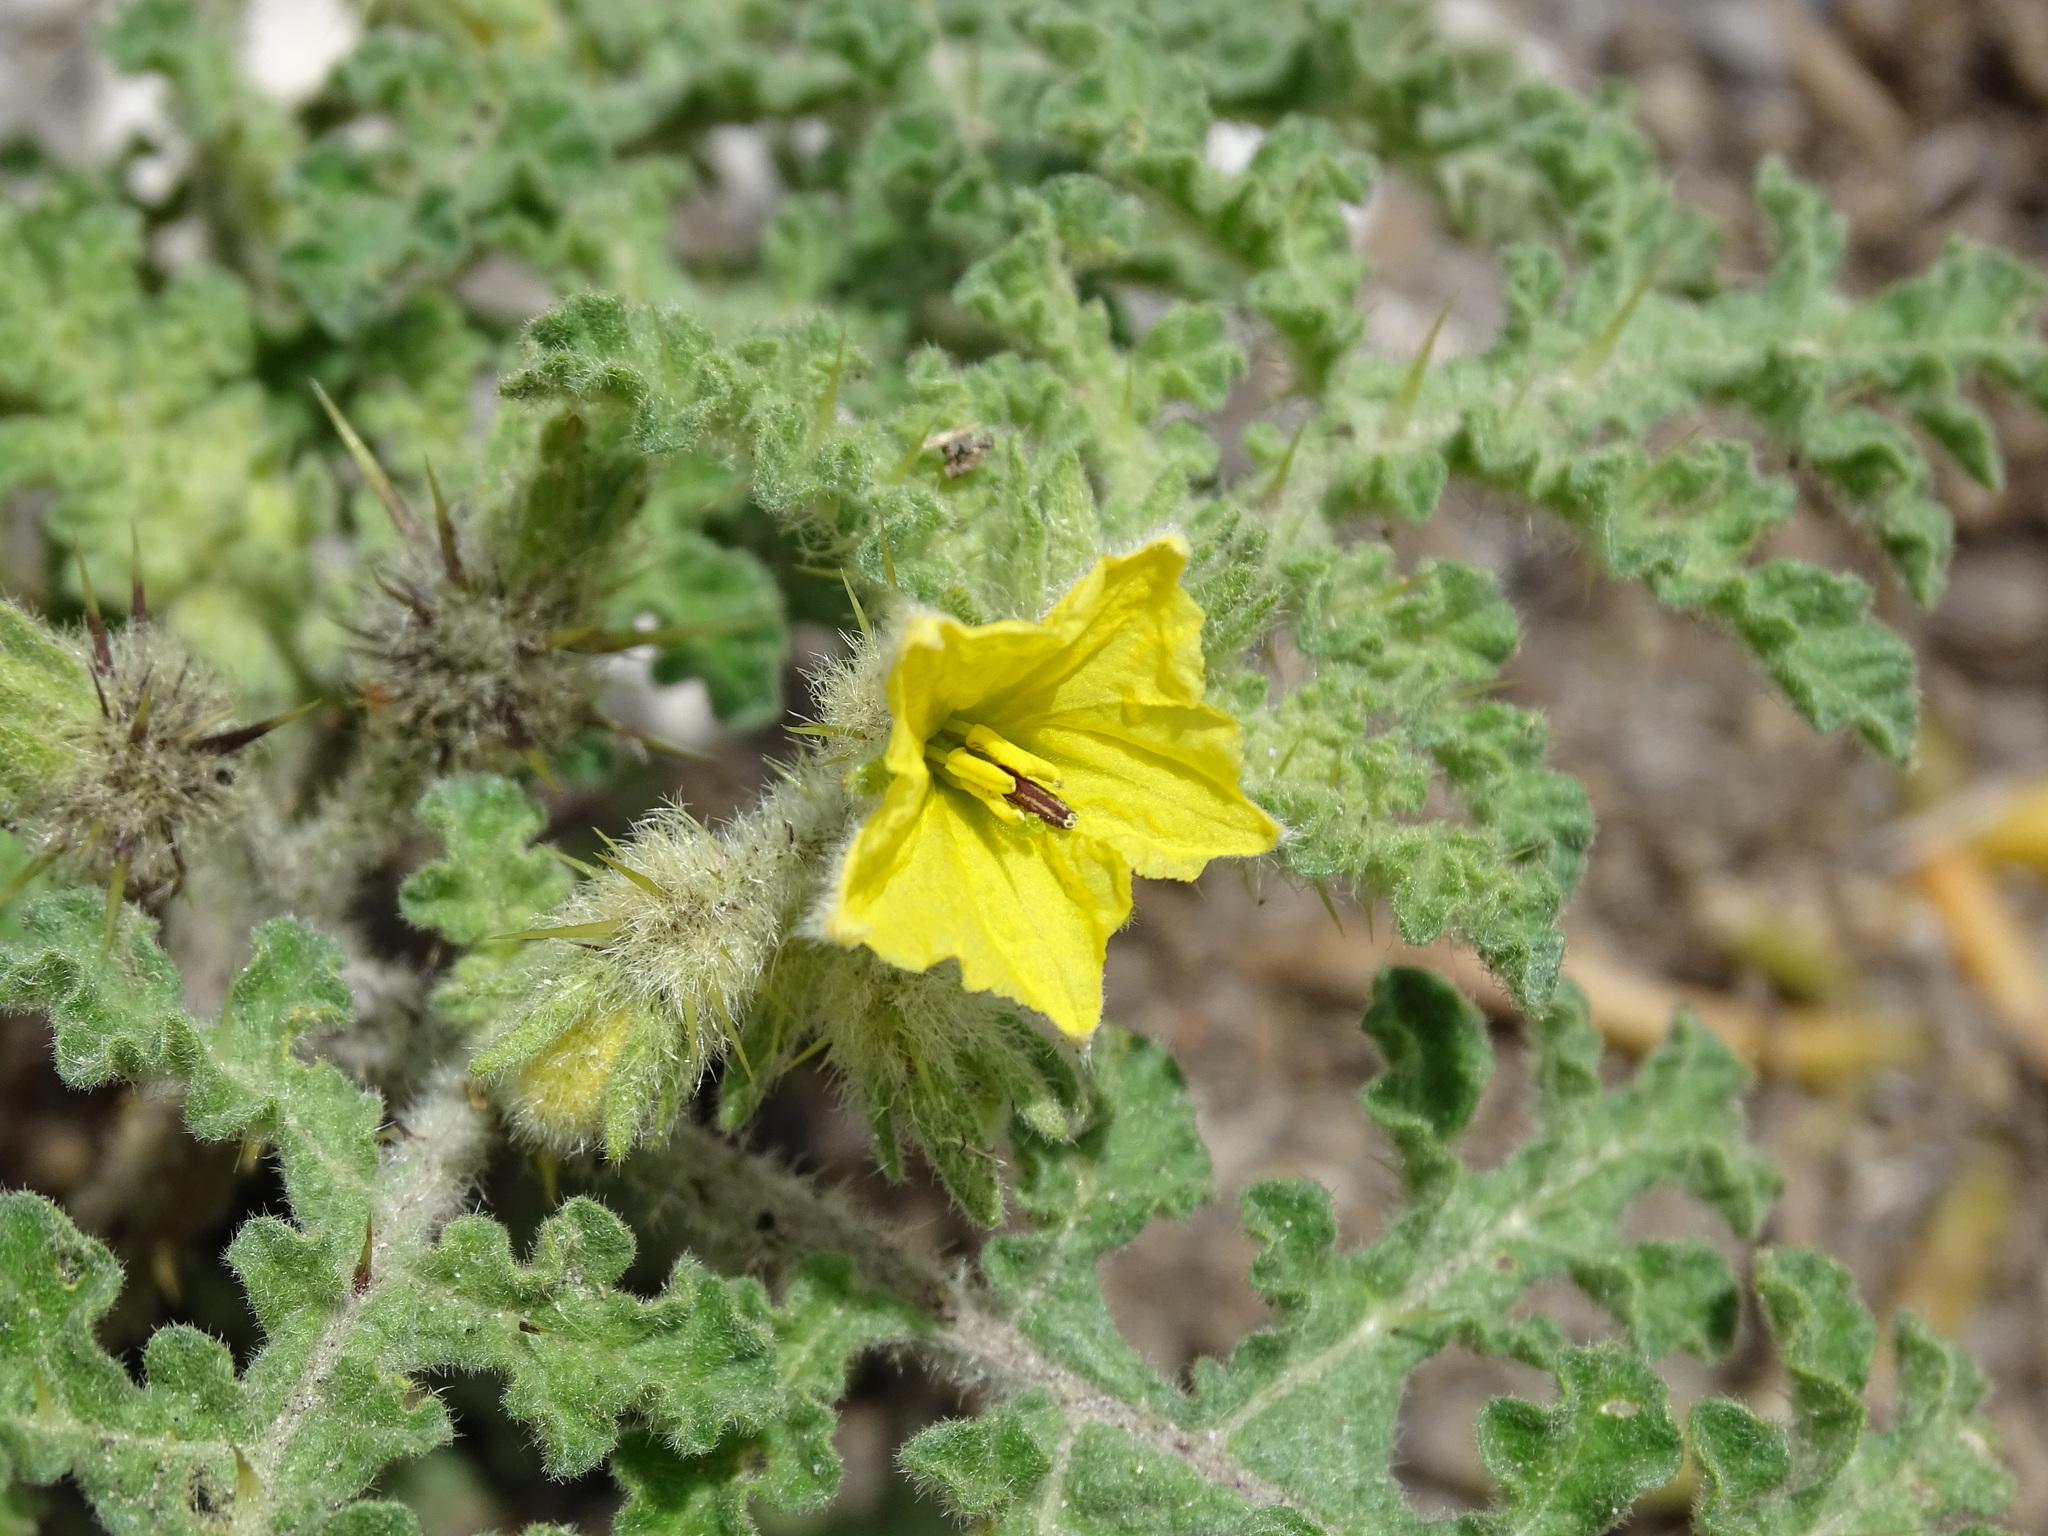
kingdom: Plantae
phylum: Tracheophyta
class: Magnoliopsida
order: Solanales
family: Solanaceae
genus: Solanum
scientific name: Solanum tectum
